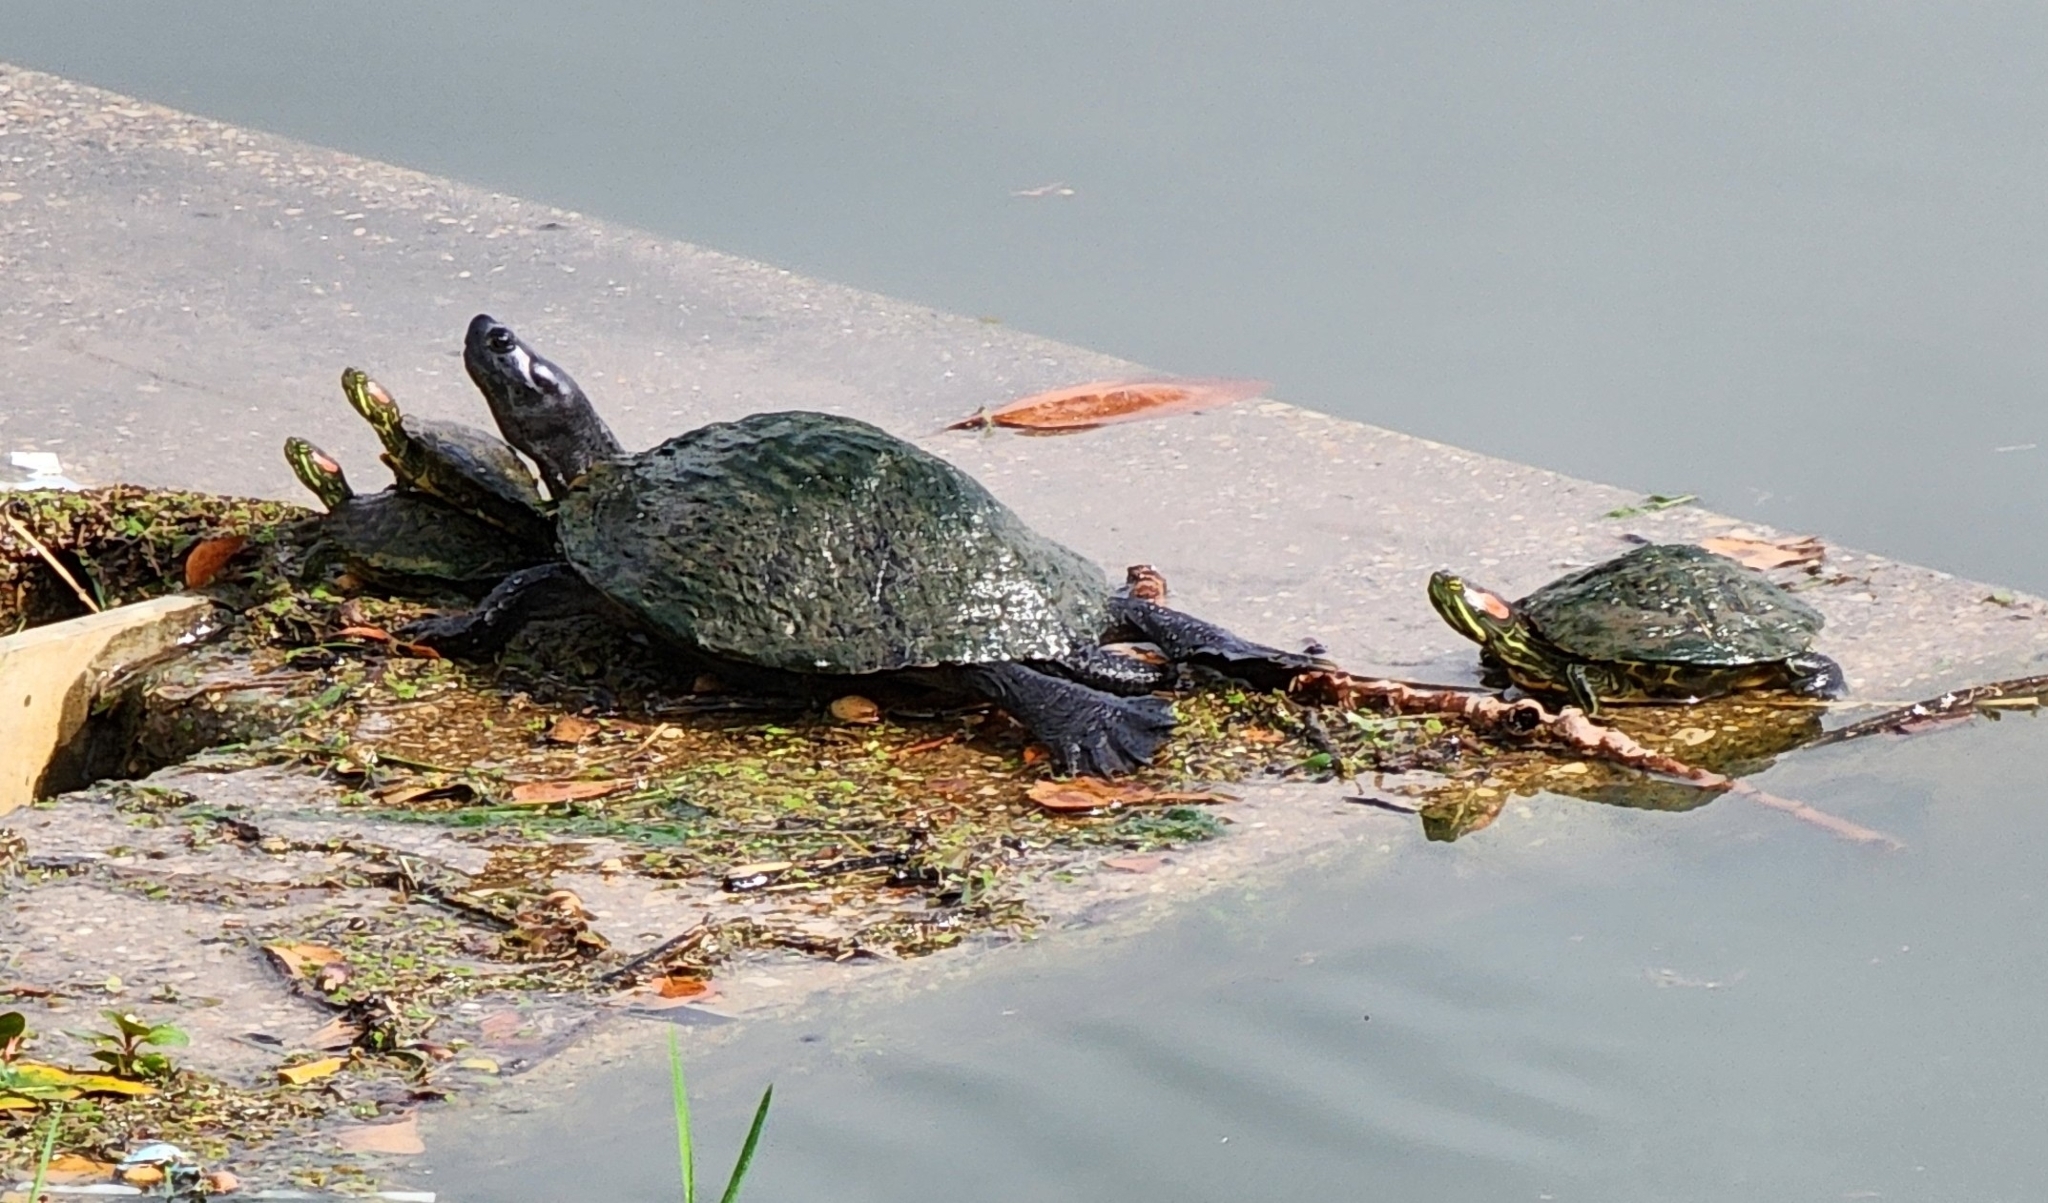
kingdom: Animalia
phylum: Chordata
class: Testudines
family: Emydidae
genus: Trachemys
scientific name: Trachemys scripta
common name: Slider
